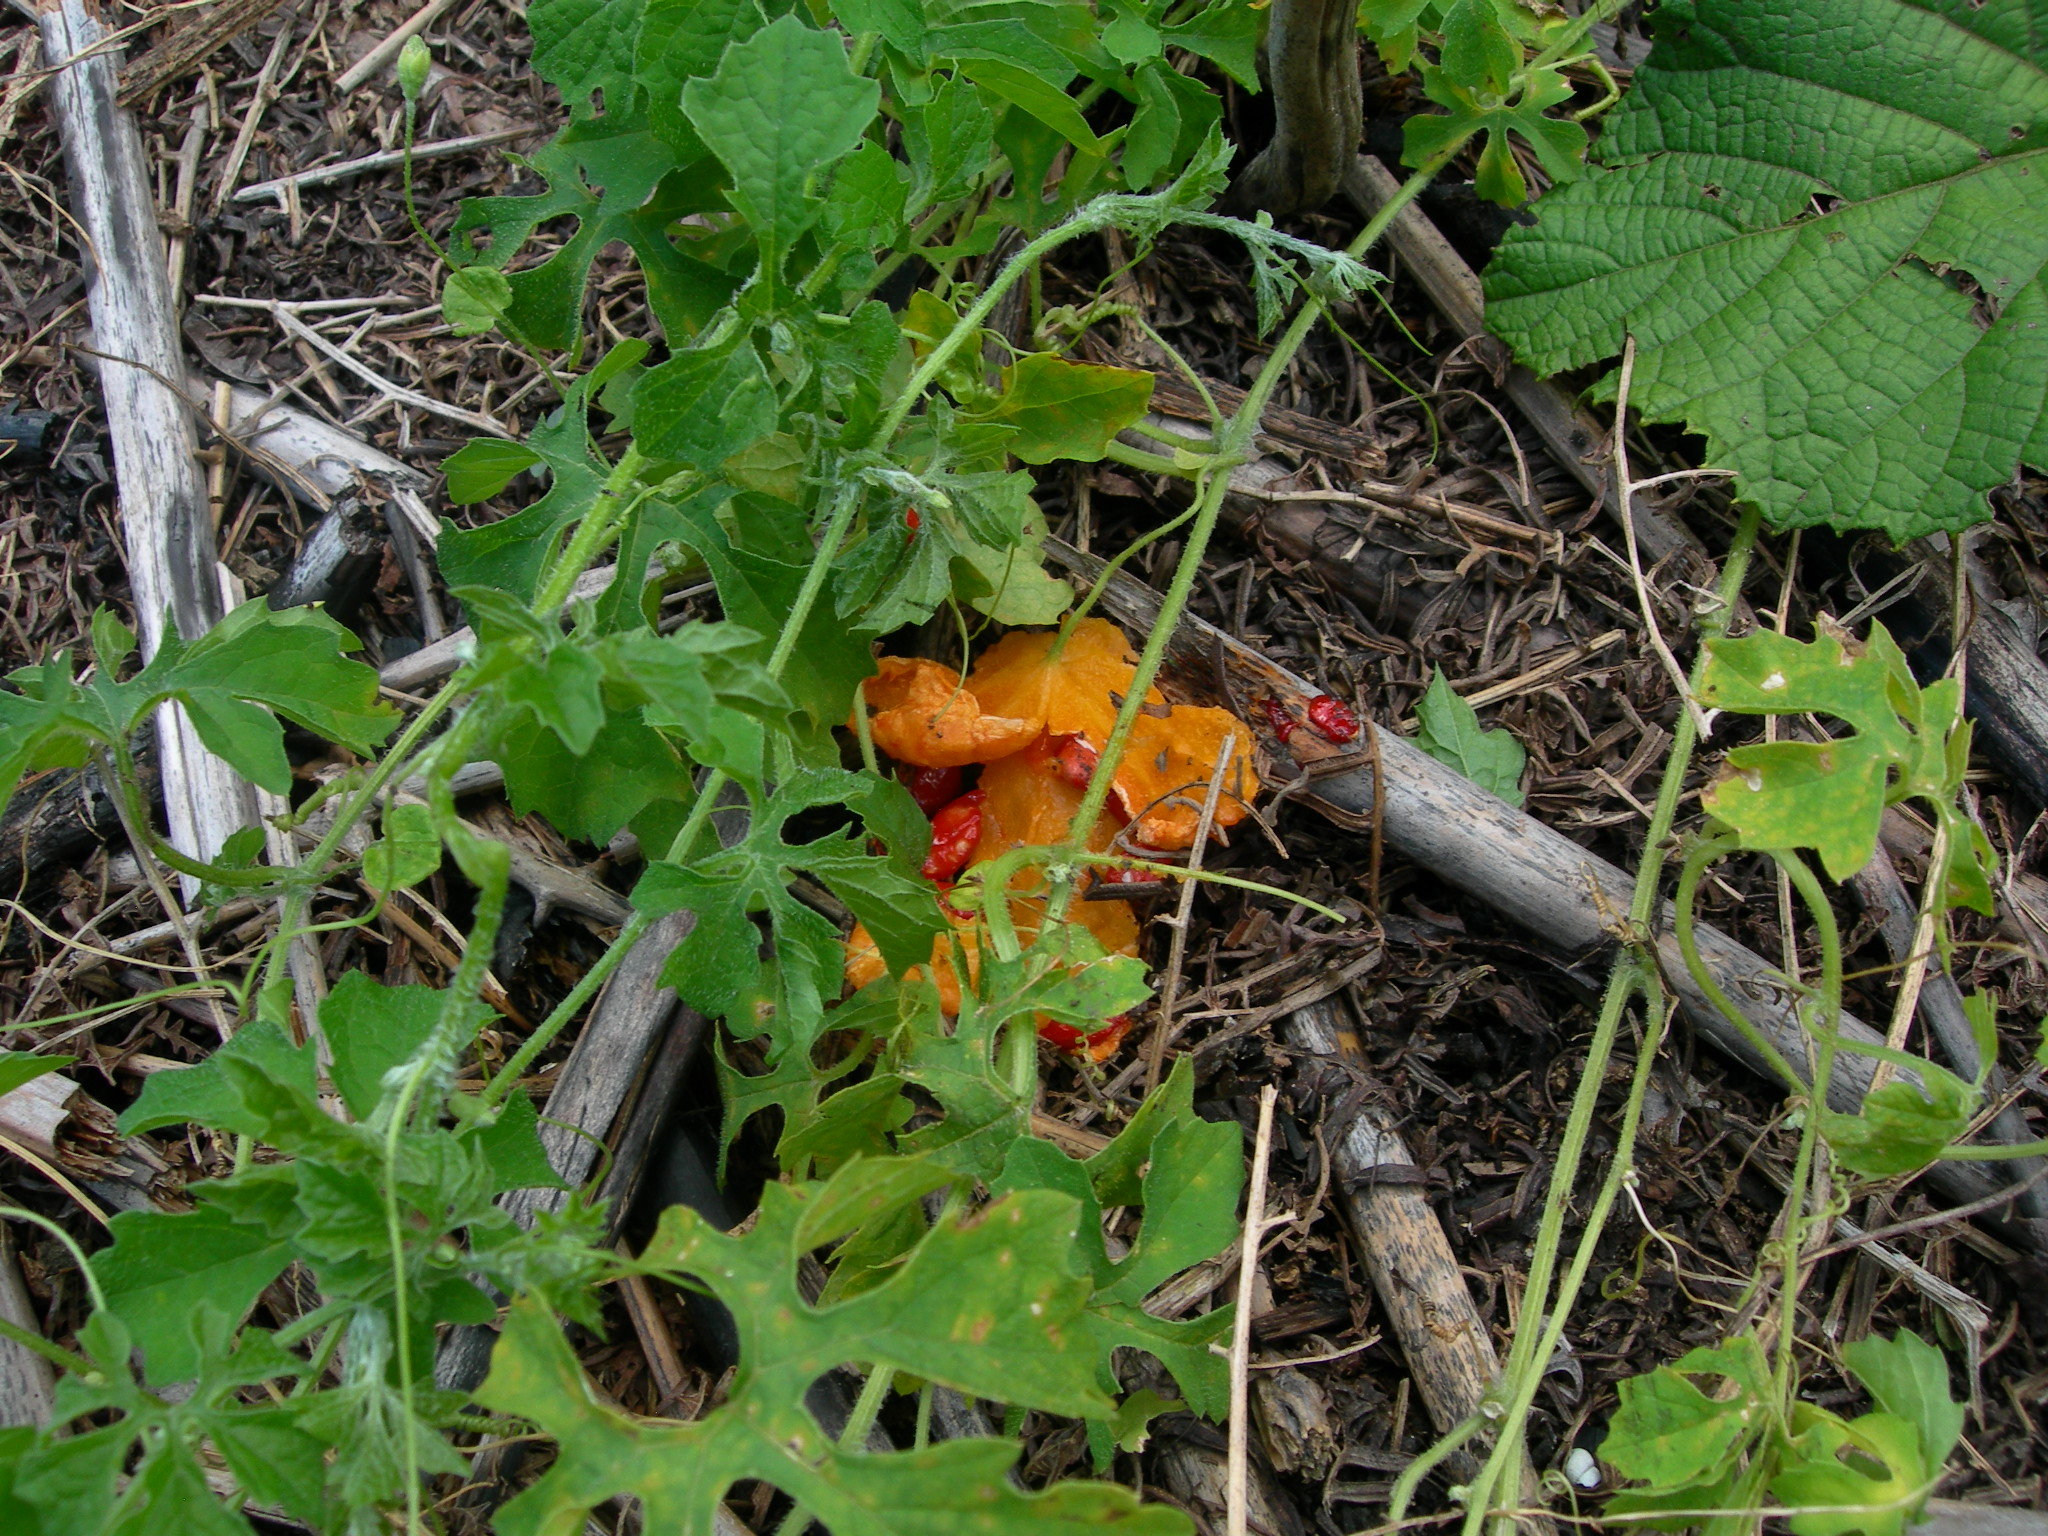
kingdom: Plantae
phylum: Tracheophyta
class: Magnoliopsida
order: Cucurbitales
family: Cucurbitaceae
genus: Momordica
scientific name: Momordica charantia
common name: Balsampear
